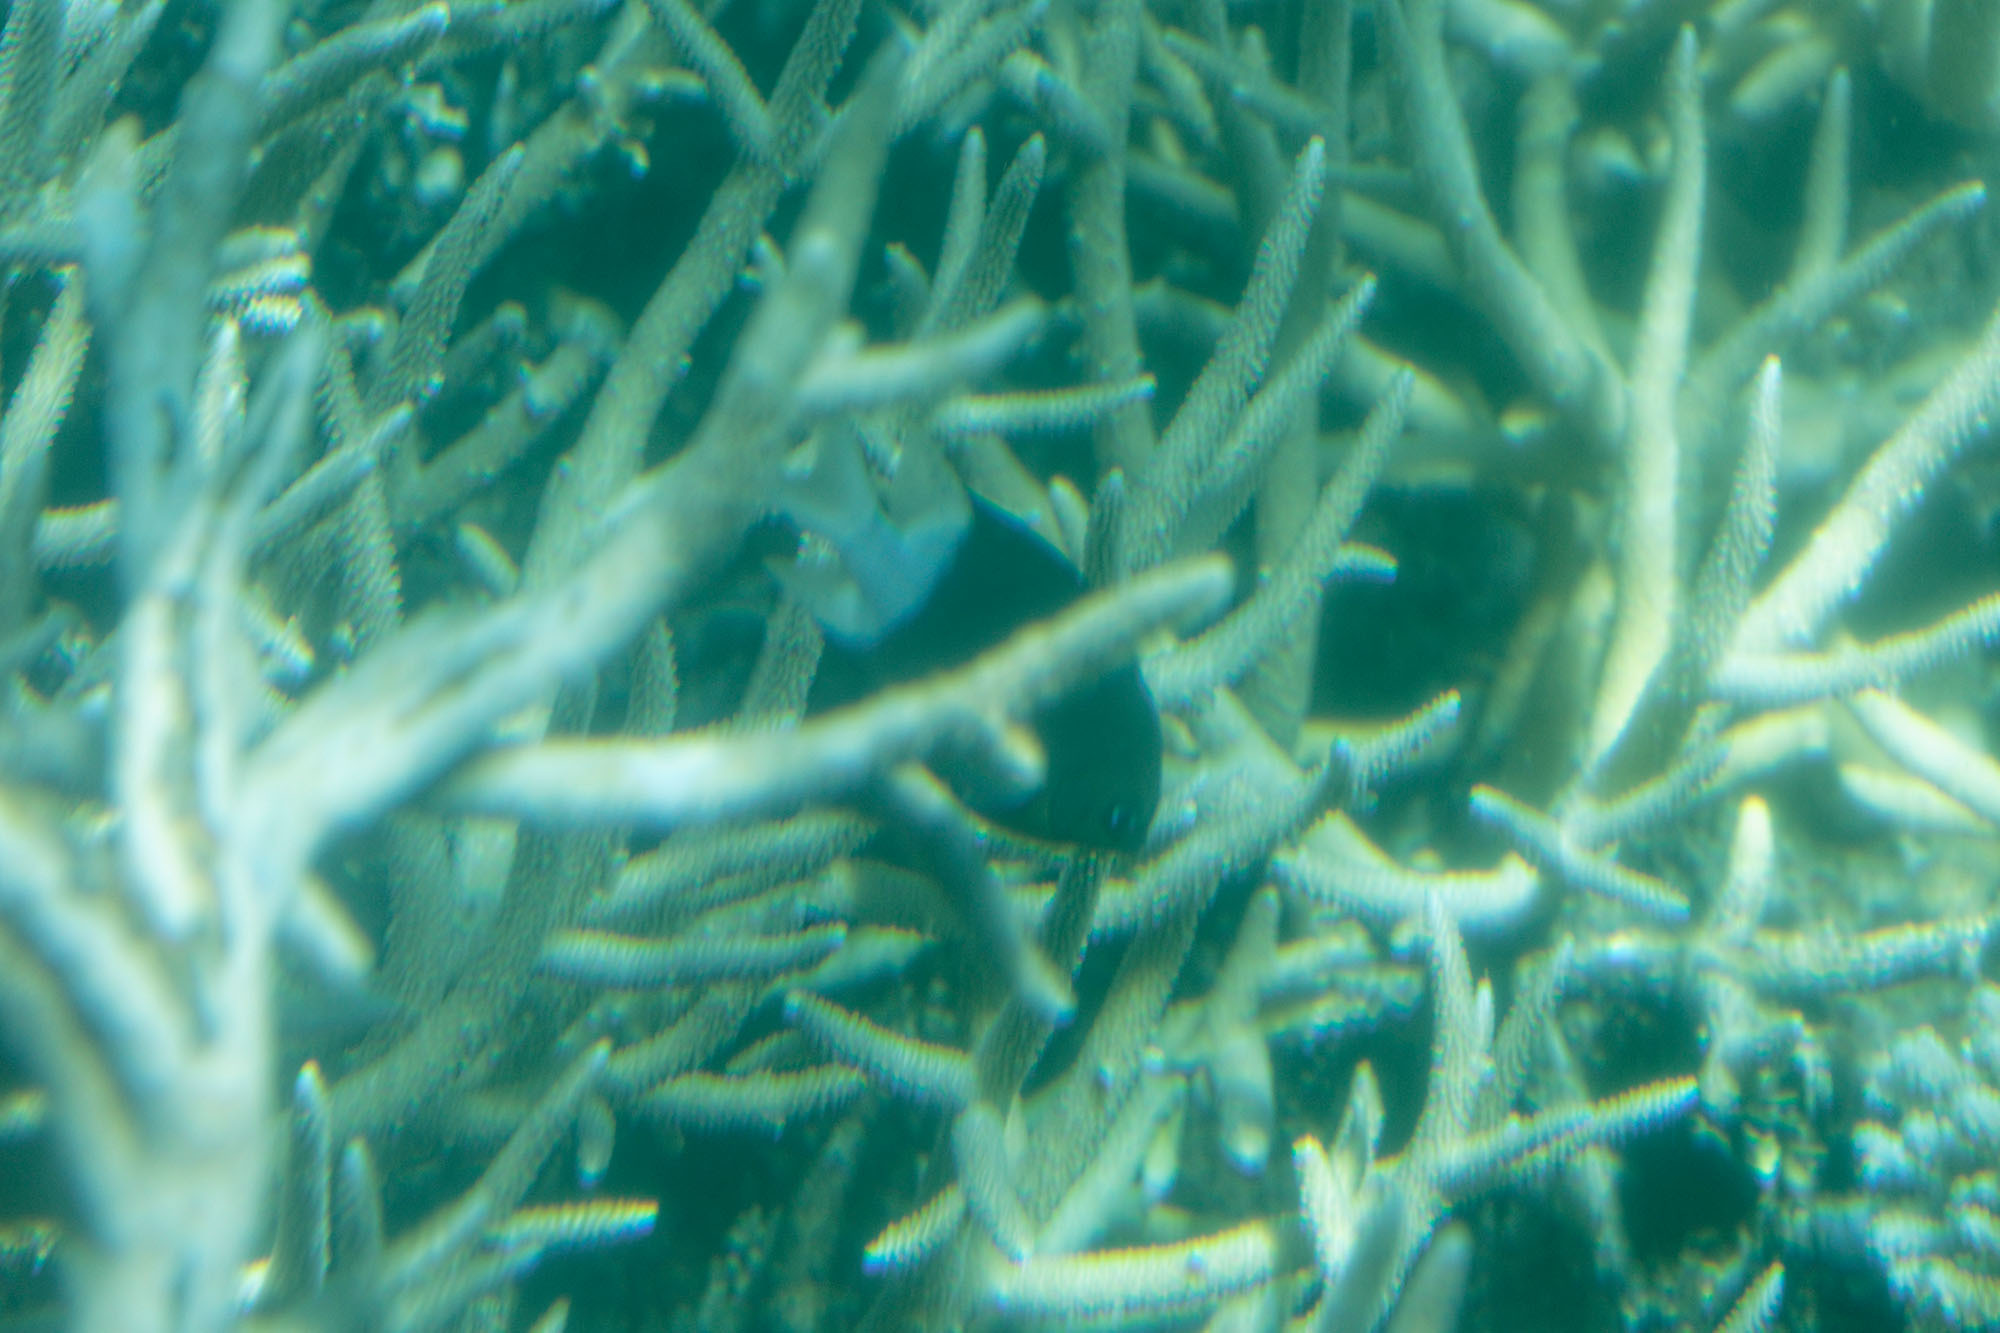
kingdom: Animalia
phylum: Chordata
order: Perciformes
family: Pomacentridae
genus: Acanthochromis
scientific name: Acanthochromis polyacanthus
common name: Spiny chromis
